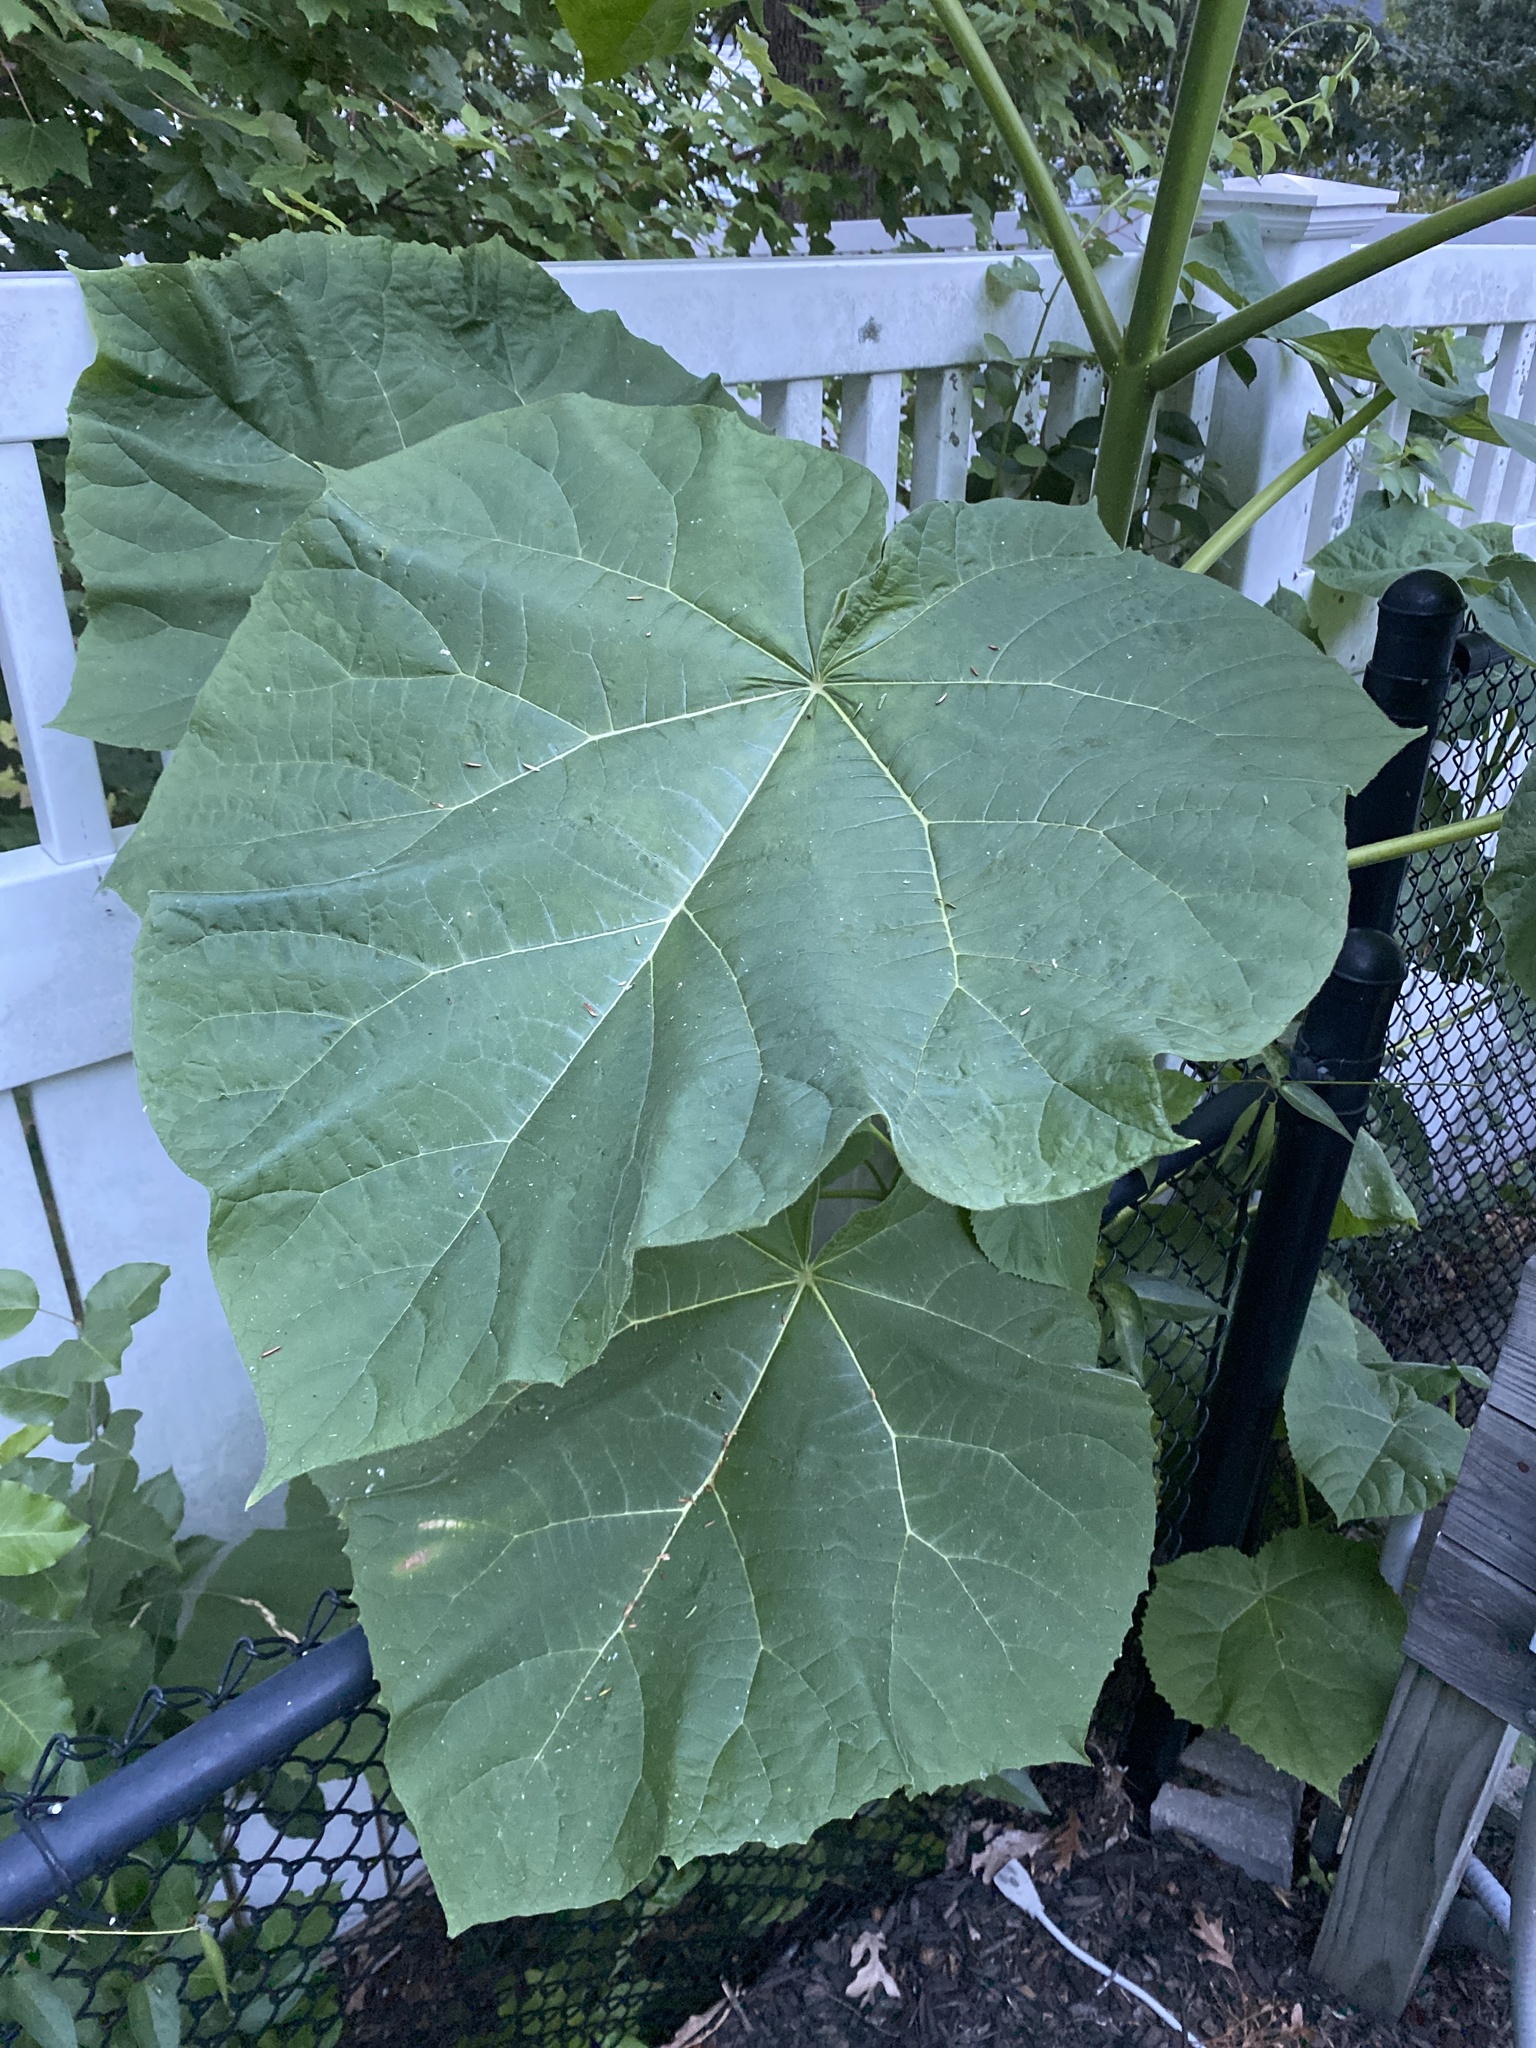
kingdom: Plantae
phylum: Tracheophyta
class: Magnoliopsida
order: Lamiales
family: Paulowniaceae
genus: Paulownia
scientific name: Paulownia tomentosa
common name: Foxglove-tree
